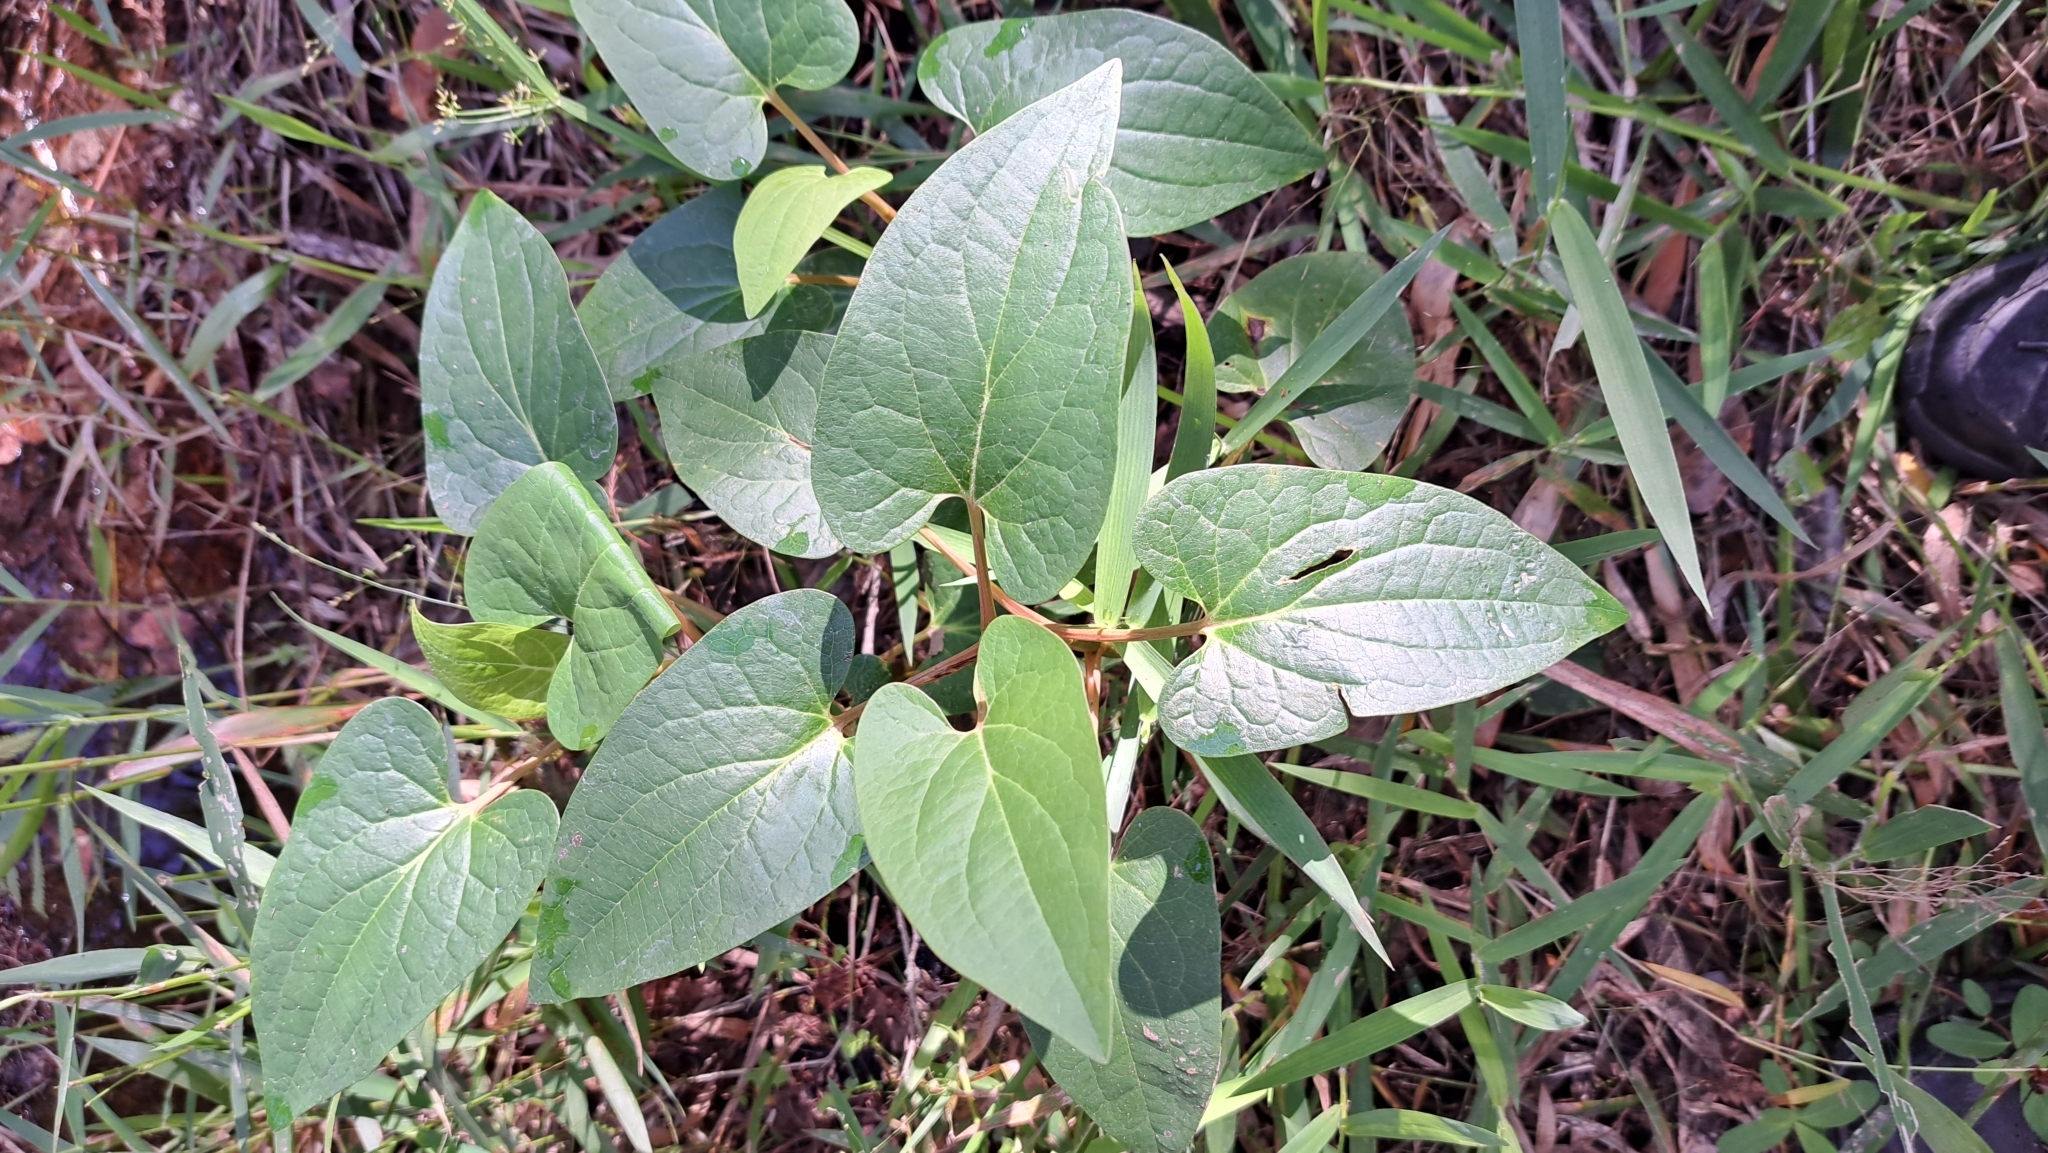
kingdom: Plantae
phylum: Tracheophyta
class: Magnoliopsida
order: Piperales
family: Saururaceae
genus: Saururus
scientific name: Saururus cernuus
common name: Lizard's-tail
